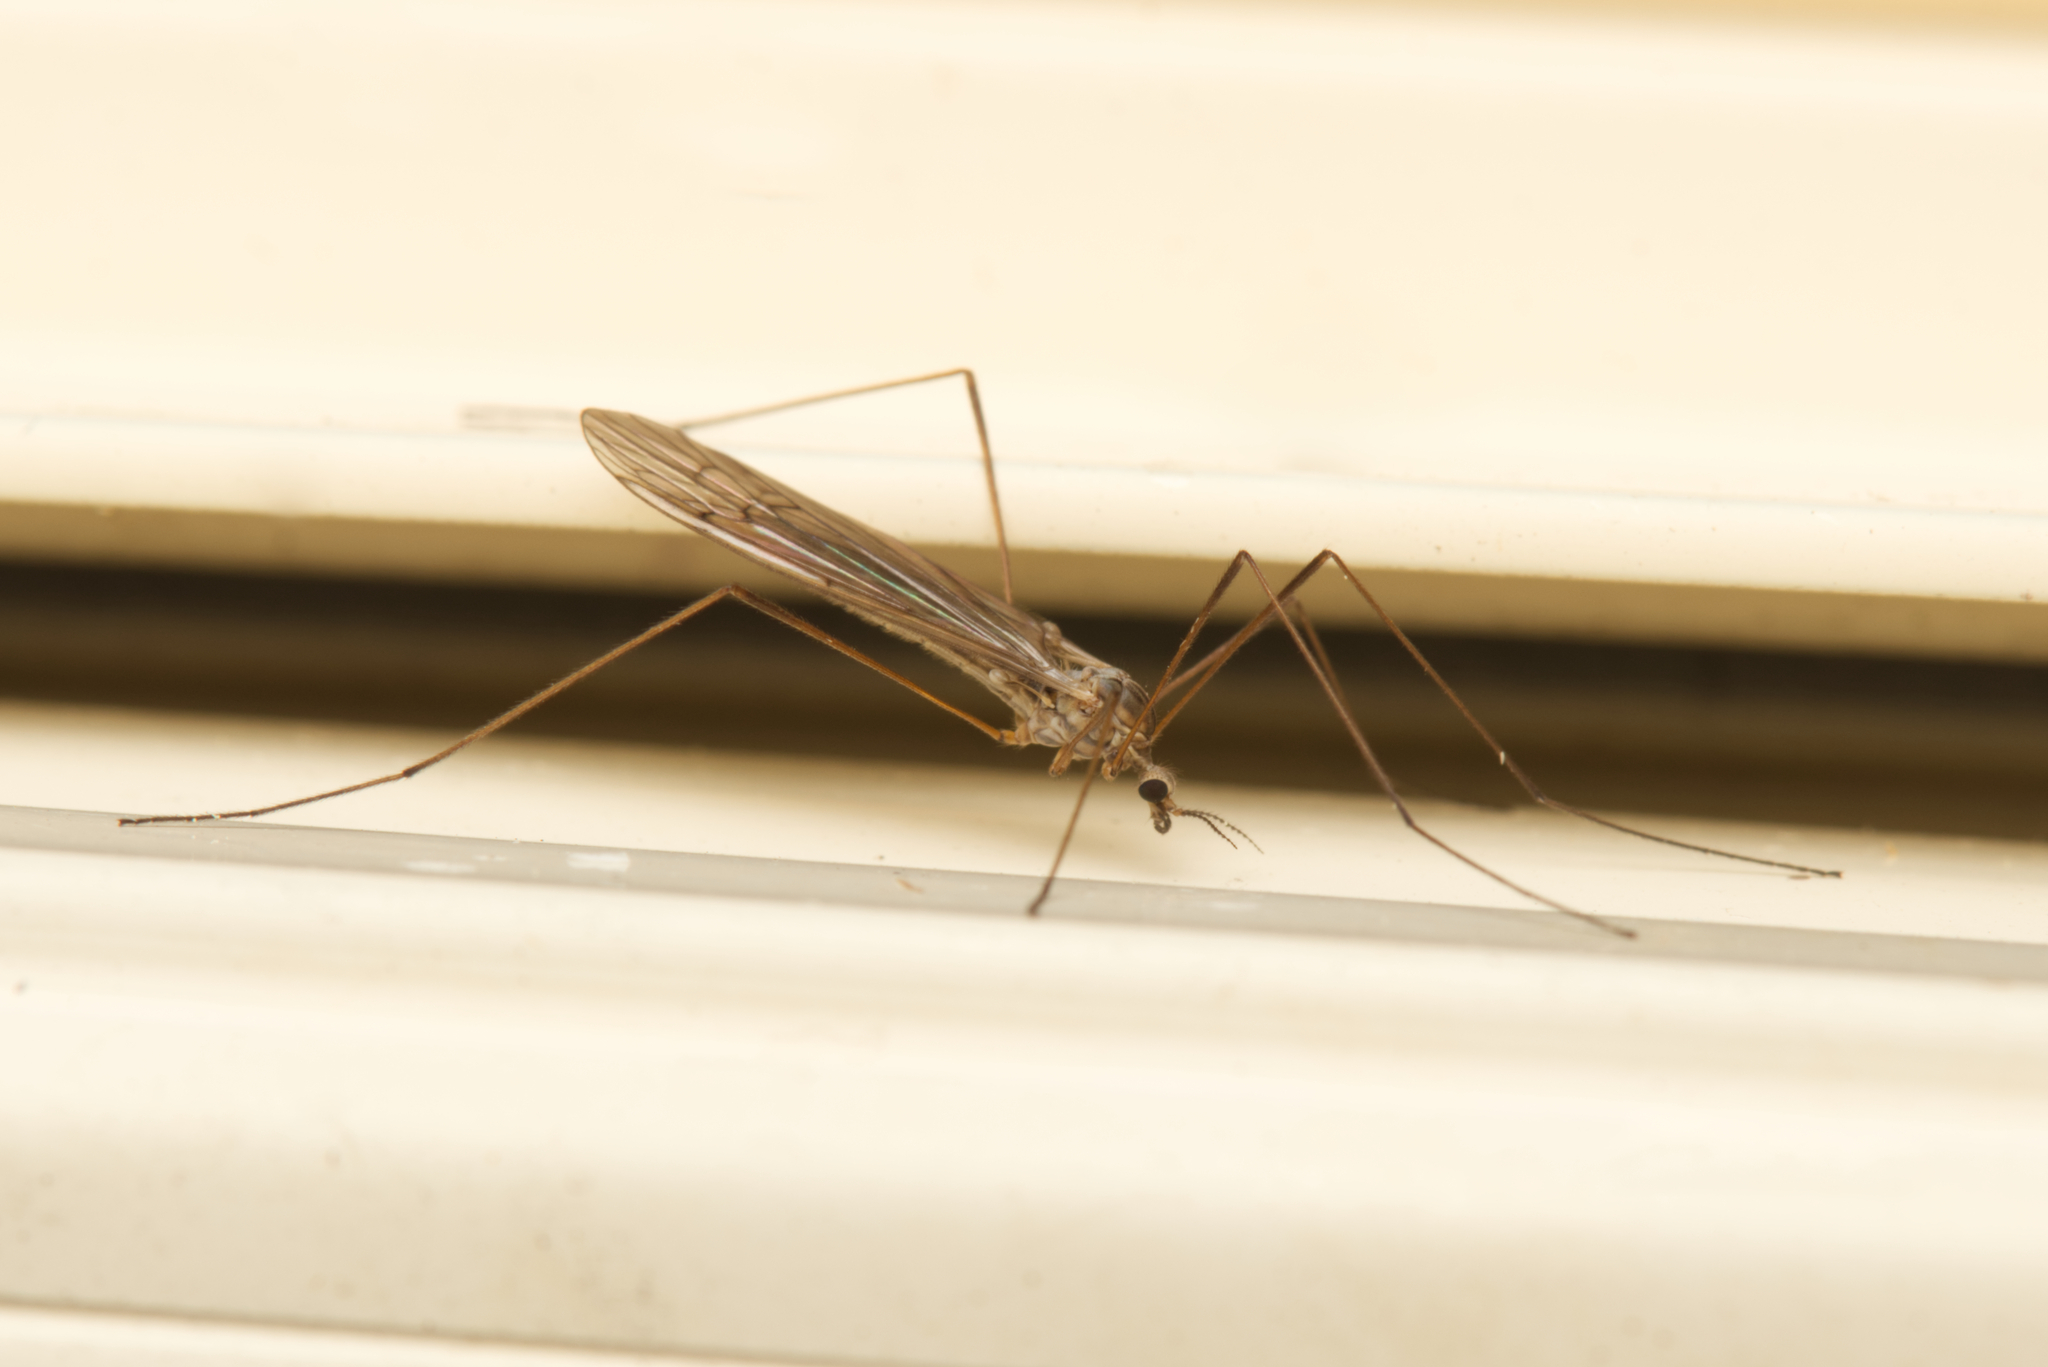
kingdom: Animalia
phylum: Arthropoda
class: Insecta
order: Diptera
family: Limoniidae
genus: Symplecta
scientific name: Symplecta pilipes
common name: Crane fly
